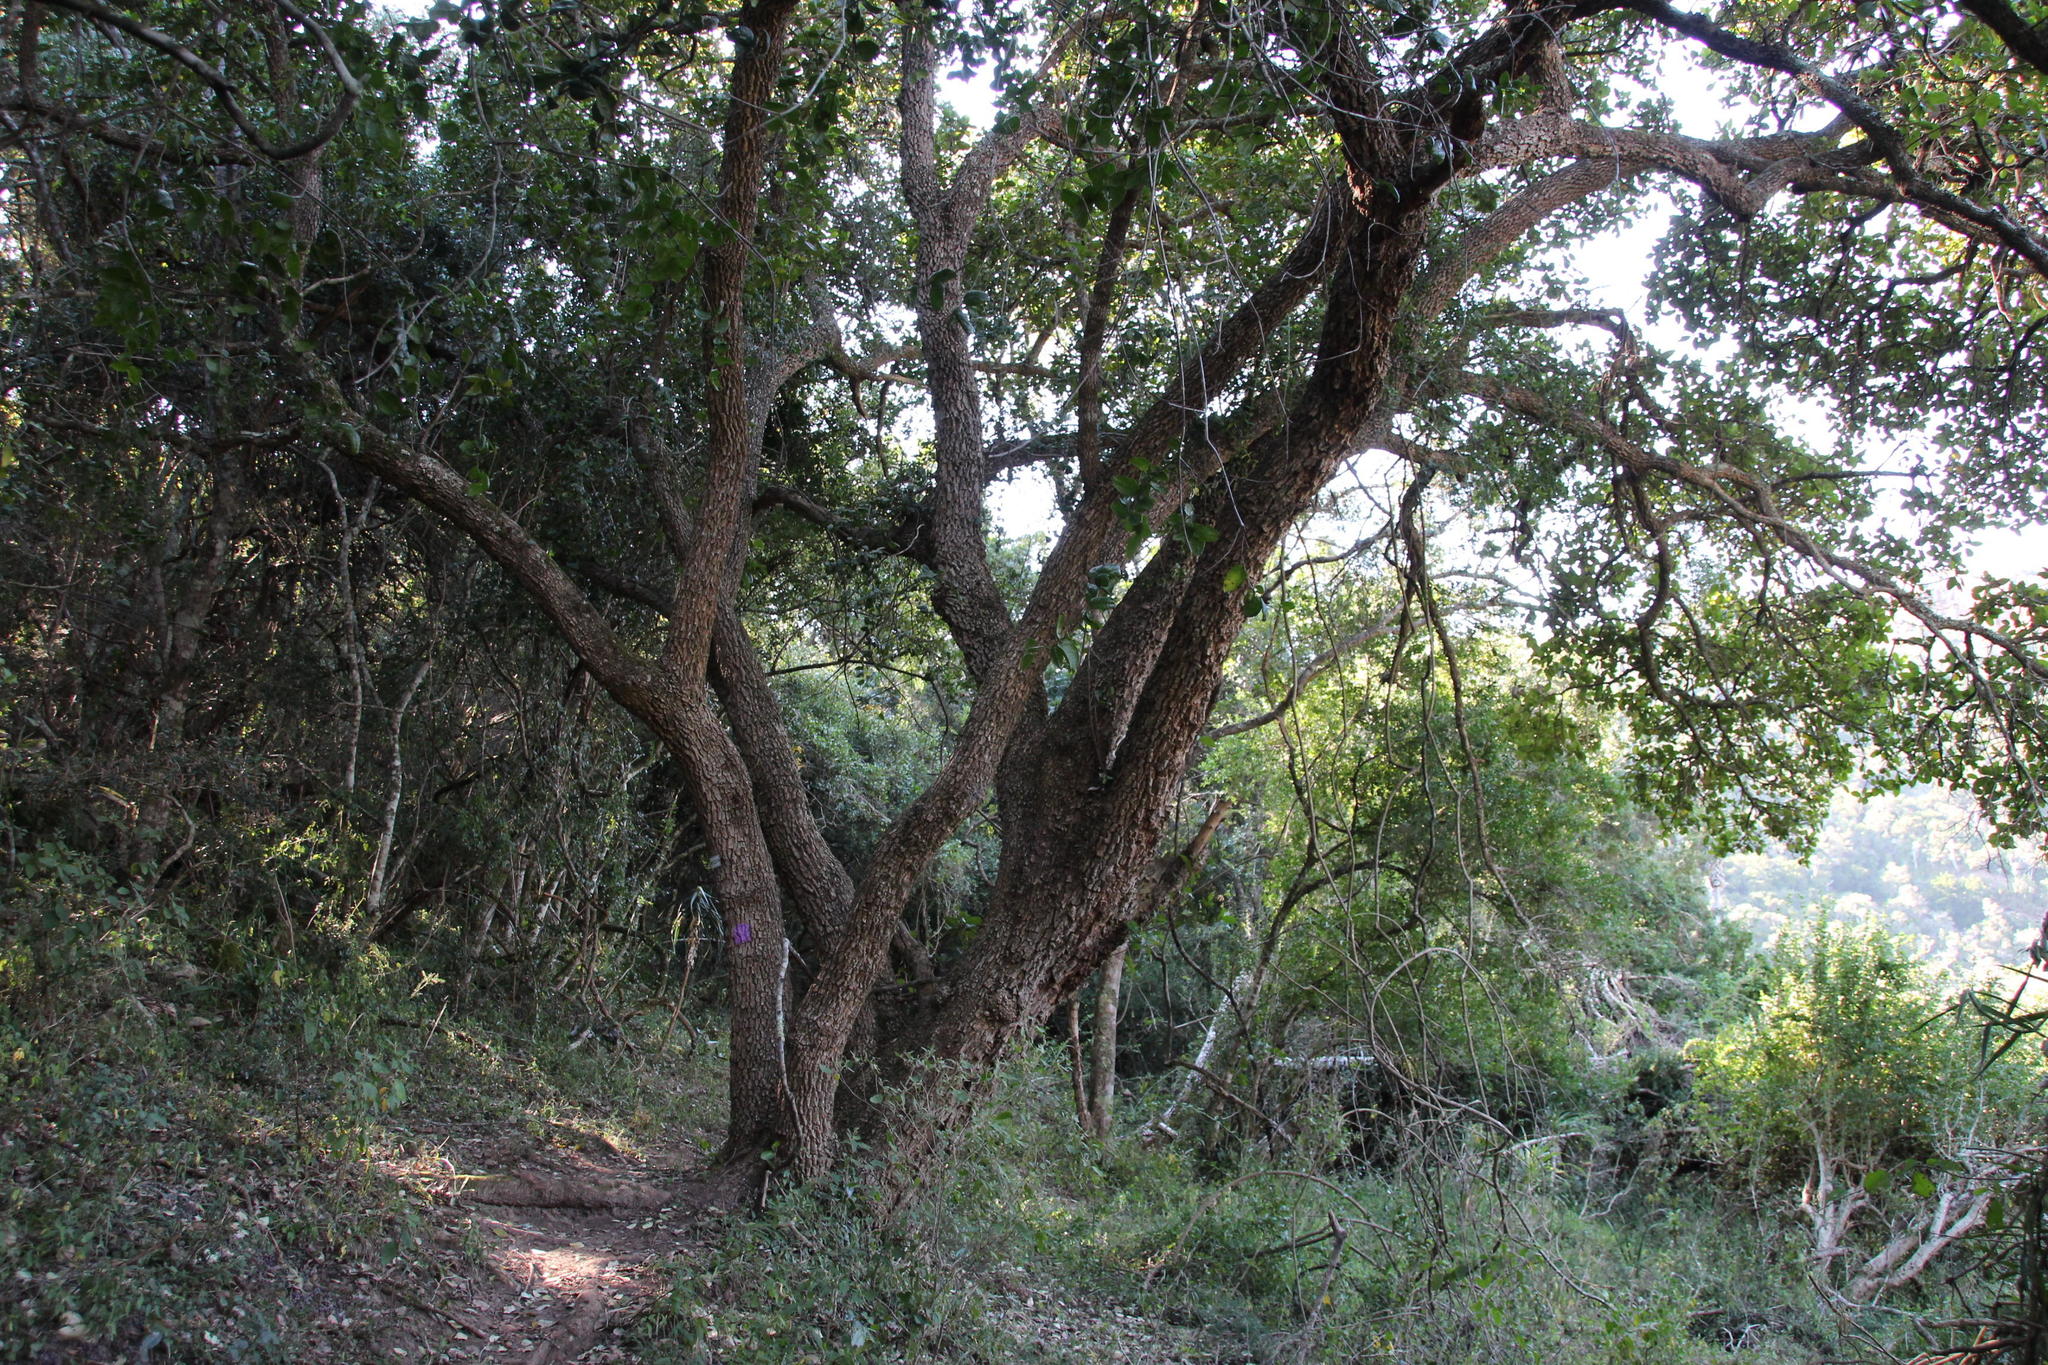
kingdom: Plantae
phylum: Tracheophyta
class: Magnoliopsida
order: Ericales
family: Sapotaceae
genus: Sideroxylon
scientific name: Sideroxylon inerme
